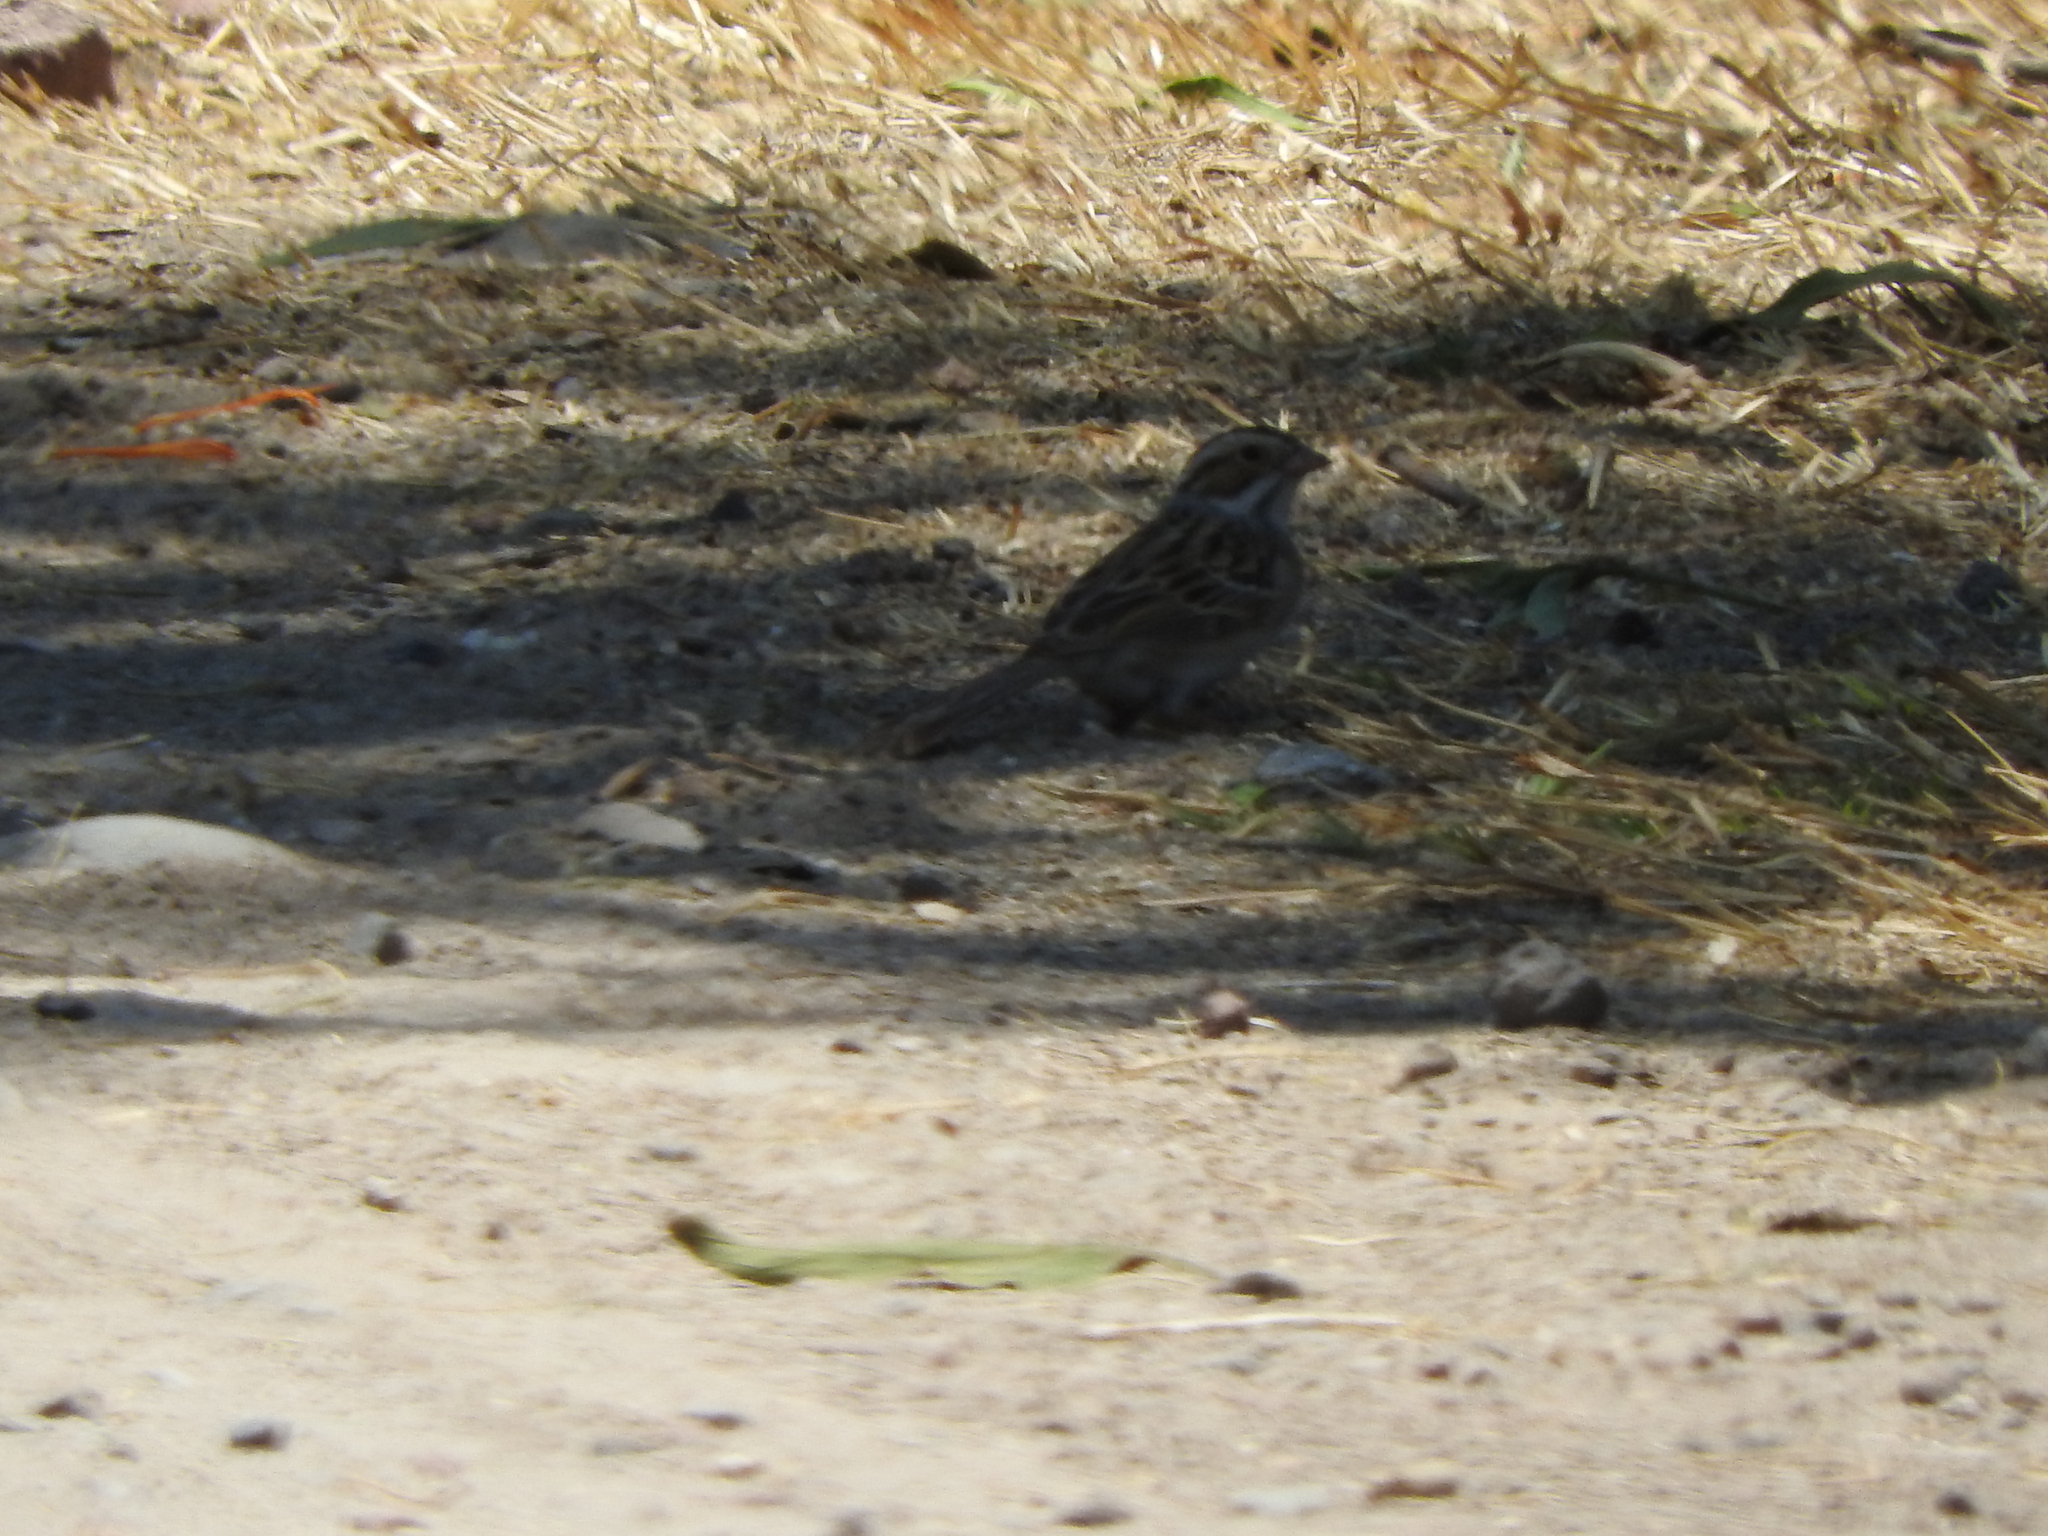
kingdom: Animalia
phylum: Chordata
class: Aves
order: Passeriformes
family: Passerellidae
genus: Spizella
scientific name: Spizella pallida
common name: Clay-colored sparrow
